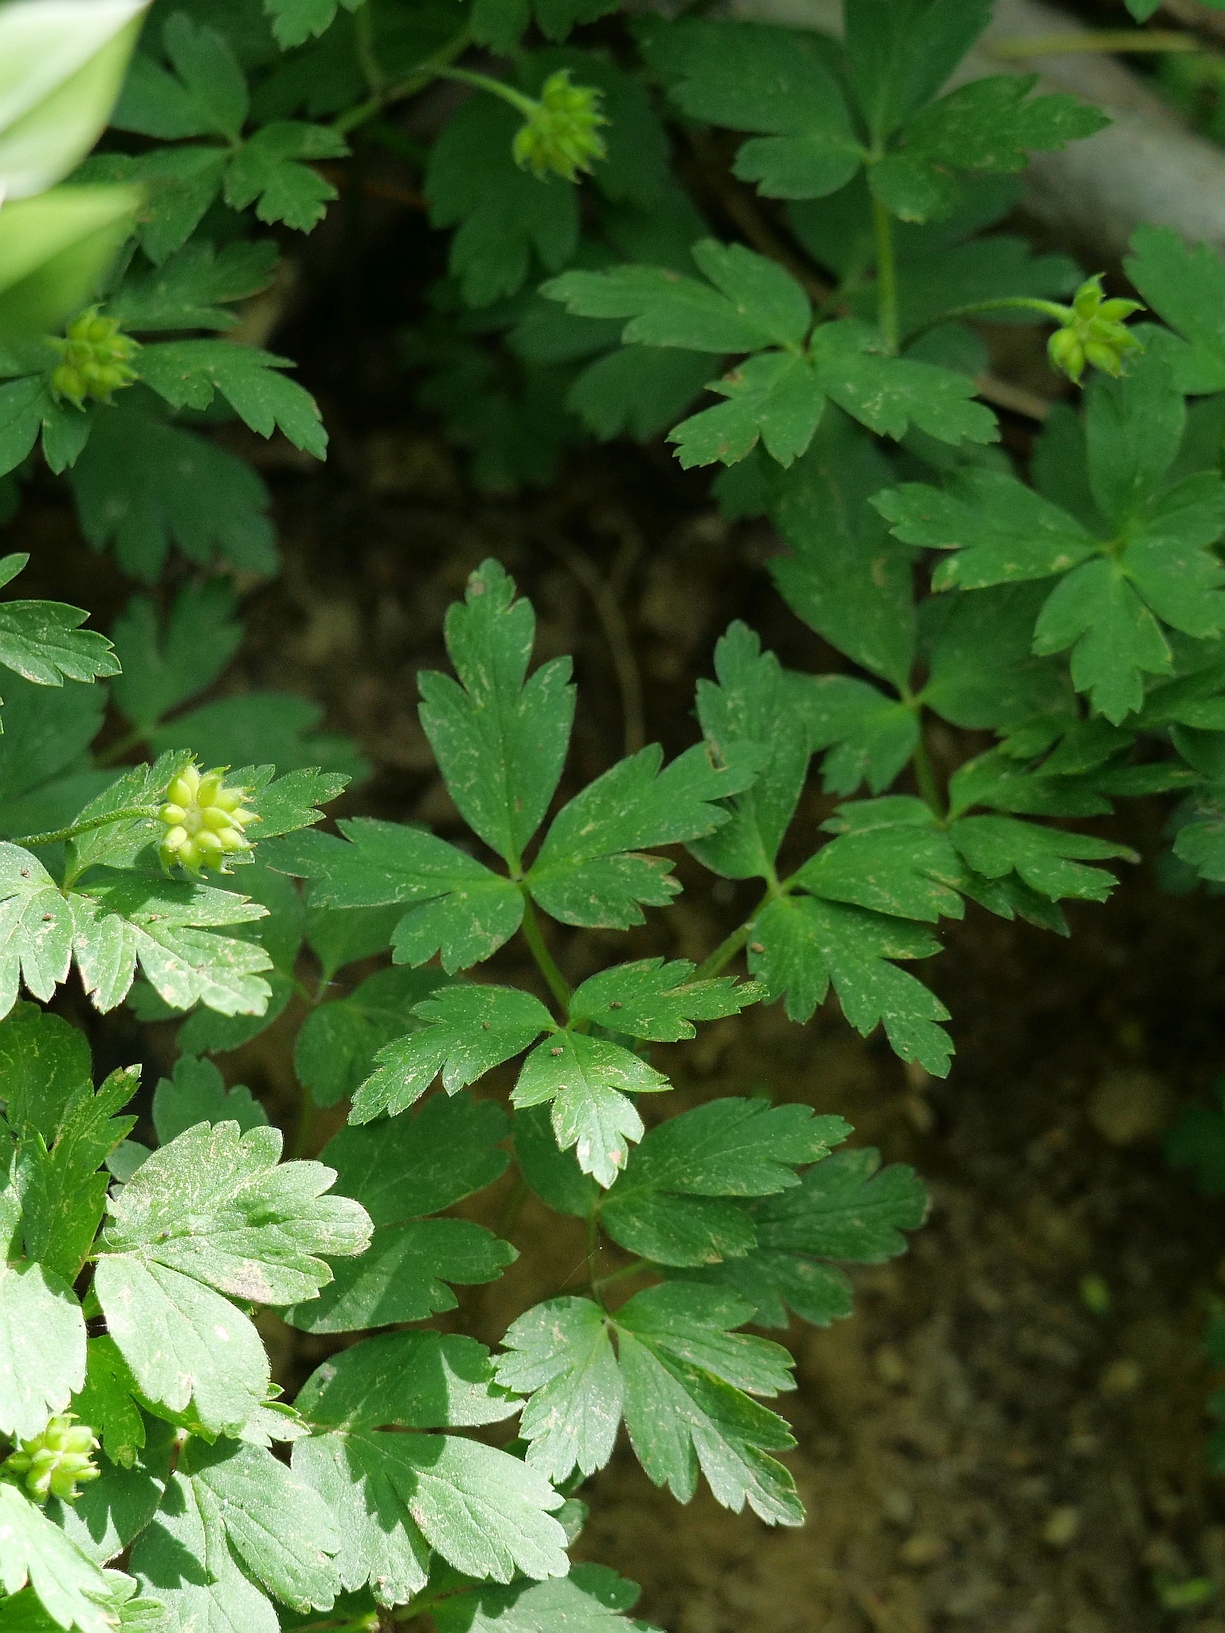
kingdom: Plantae
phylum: Tracheophyta
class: Magnoliopsida
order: Ranunculales
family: Ranunculaceae
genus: Anemone
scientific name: Anemone nemorosa
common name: Wood anemone
